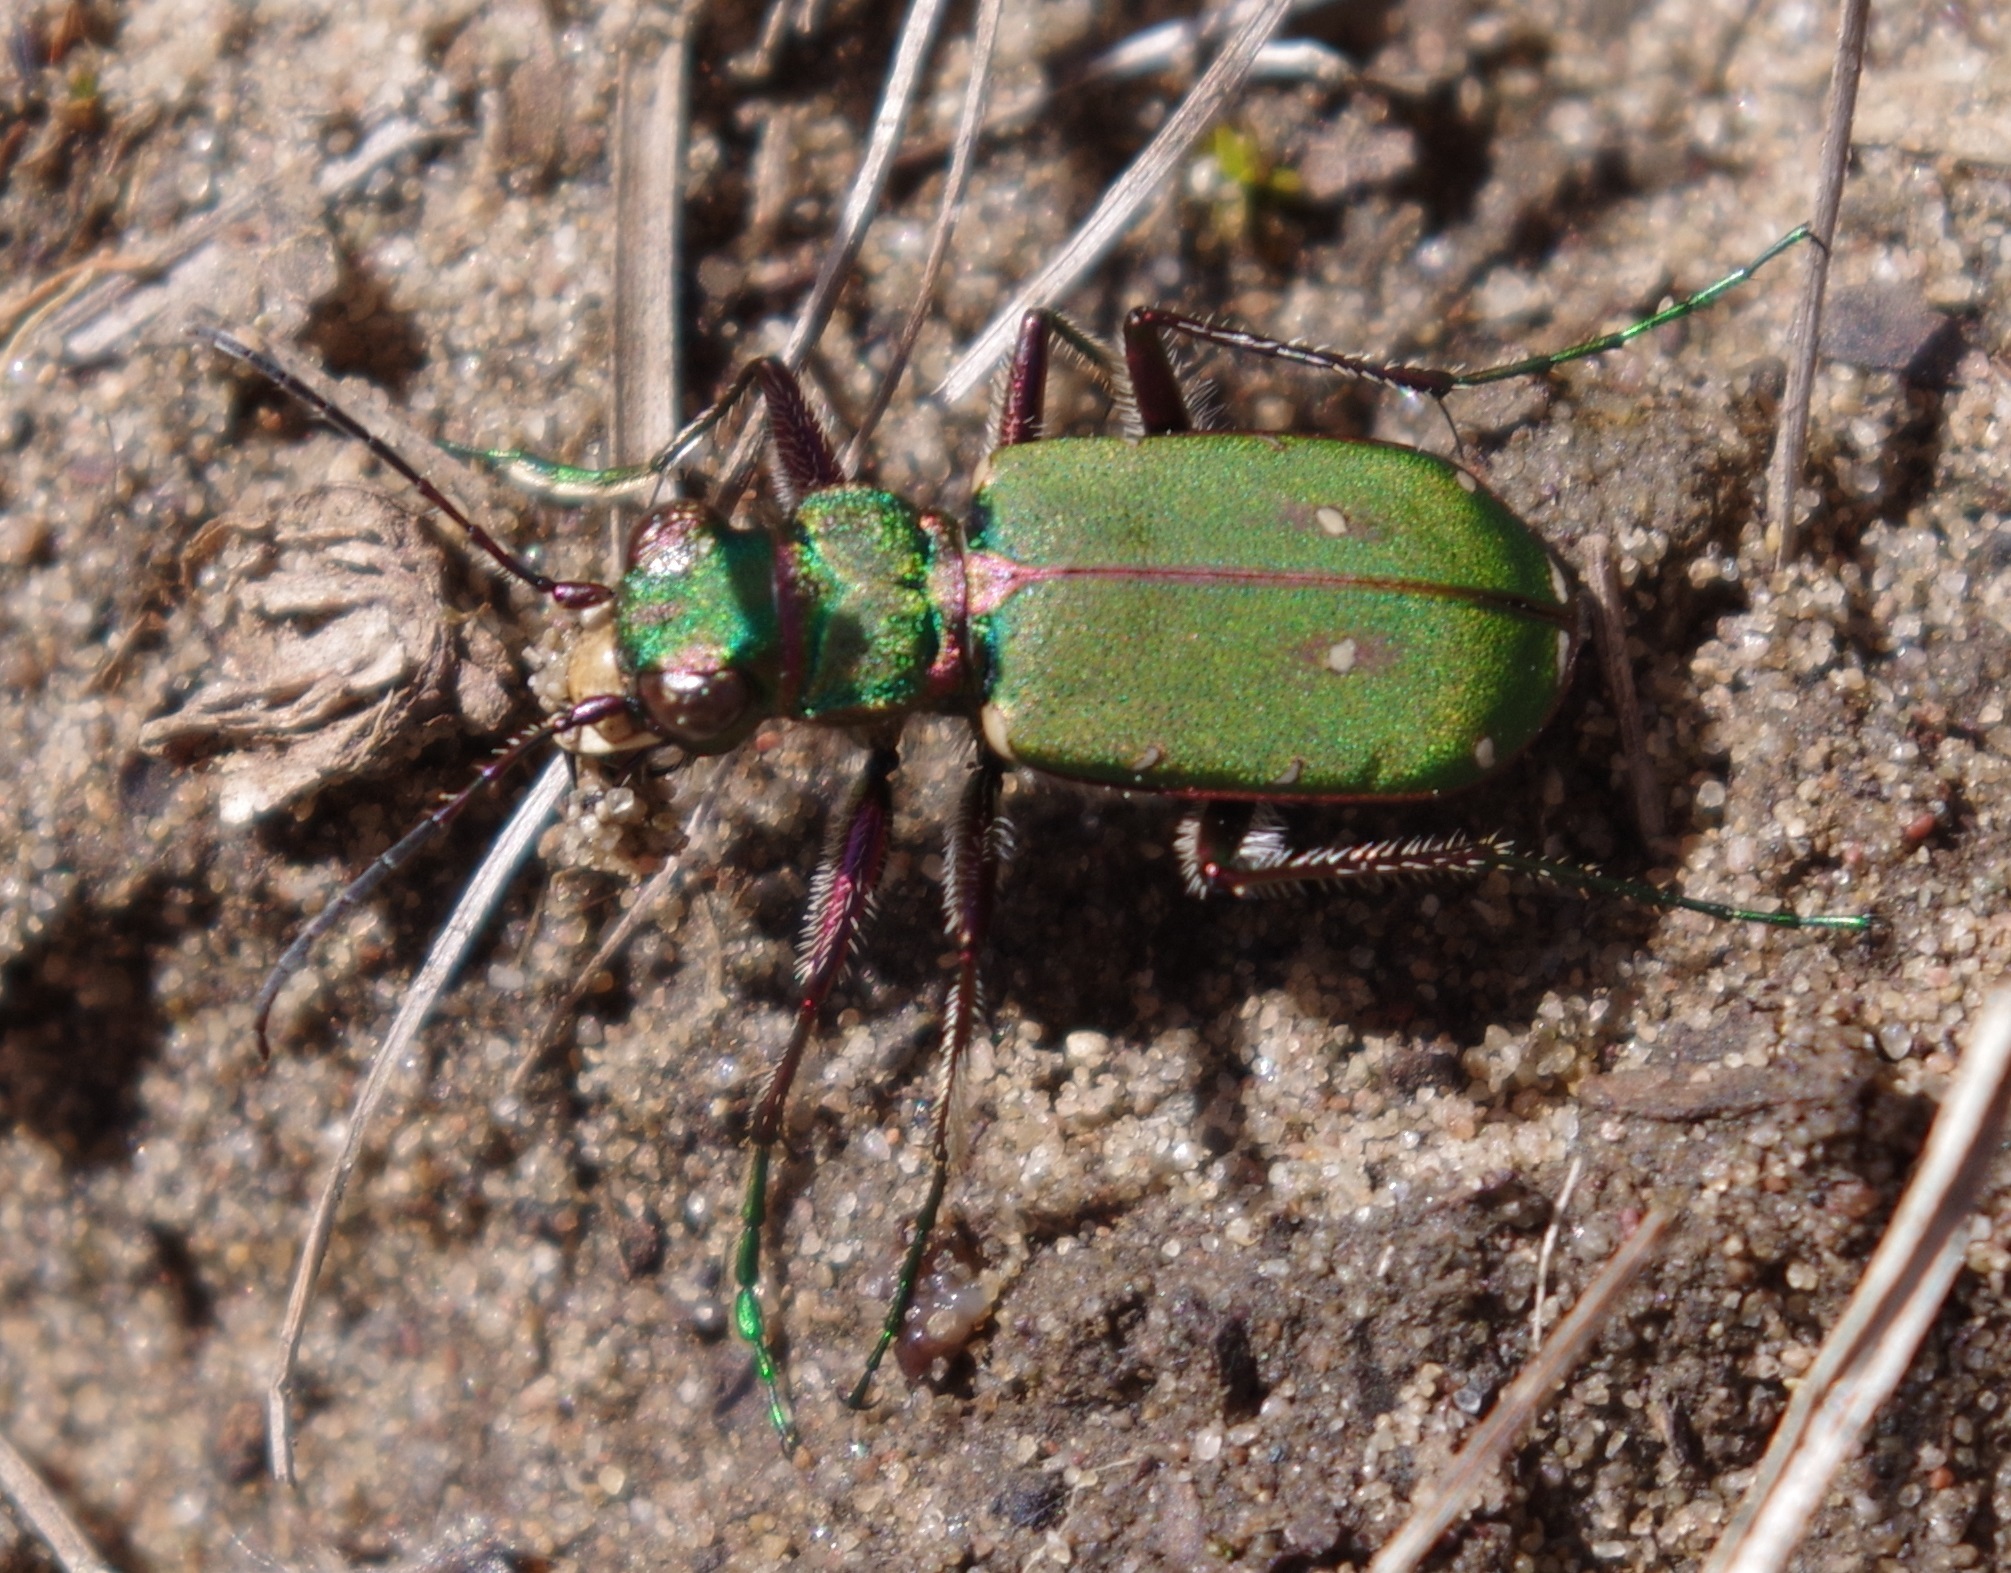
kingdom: Animalia
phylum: Arthropoda
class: Insecta
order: Coleoptera
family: Carabidae
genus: Cicindela
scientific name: Cicindela campestris
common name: Common tiger beetle
